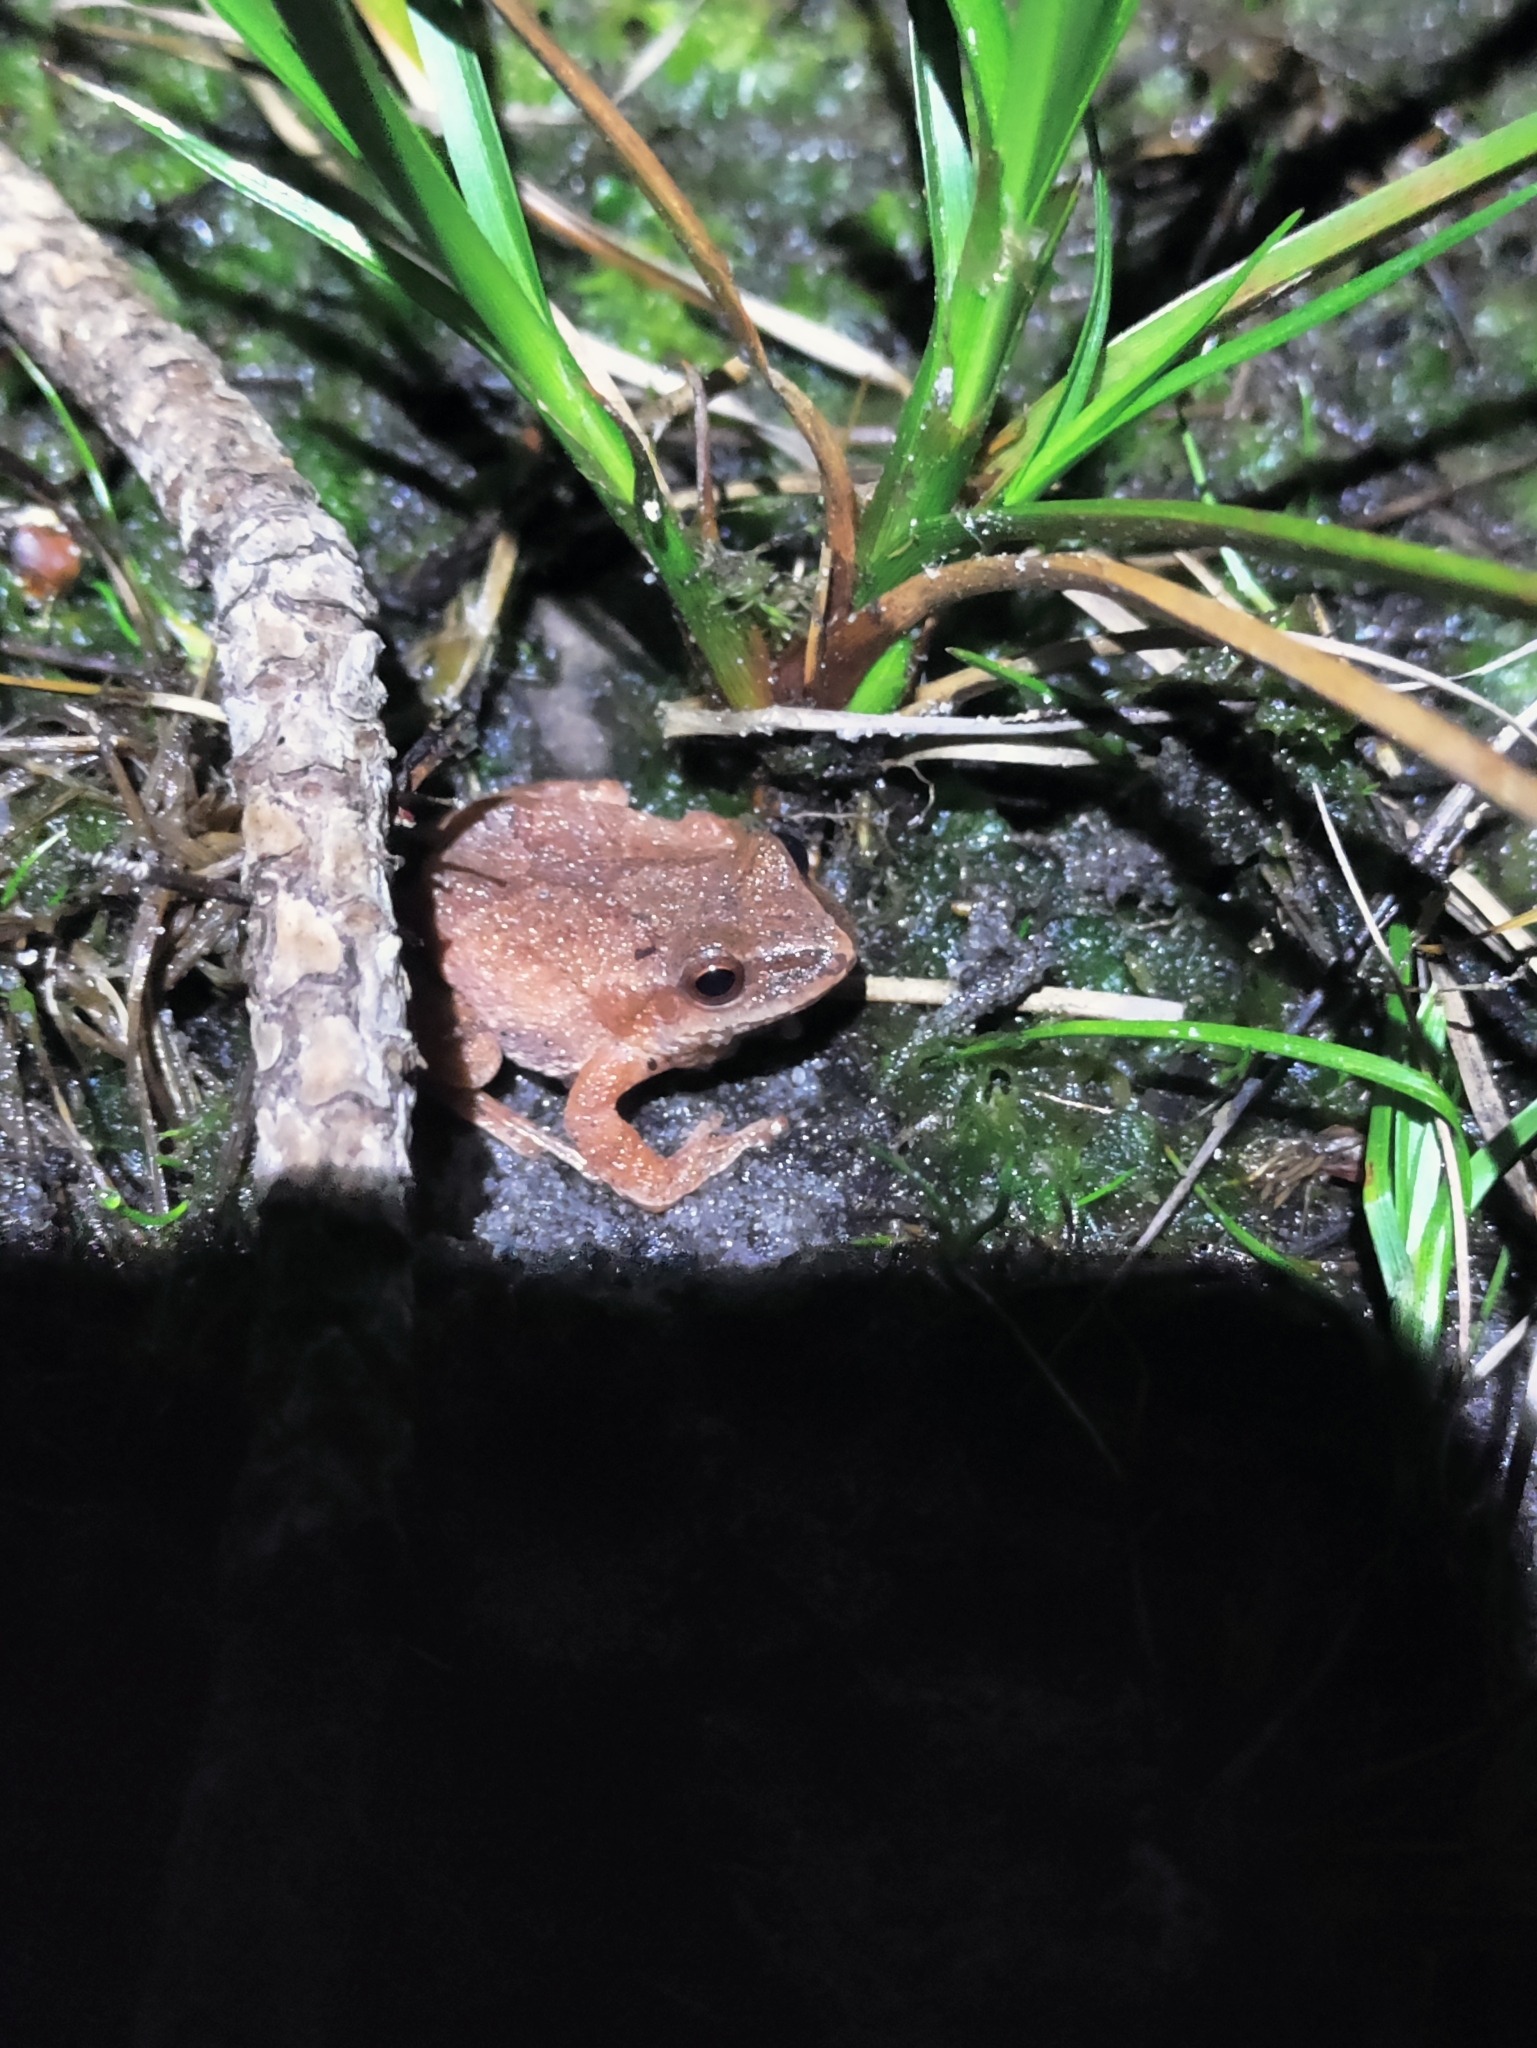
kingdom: Animalia
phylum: Chordata
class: Amphibia
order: Anura
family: Hylidae
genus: Pseudacris
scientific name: Pseudacris crucifer
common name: Spring peeper
